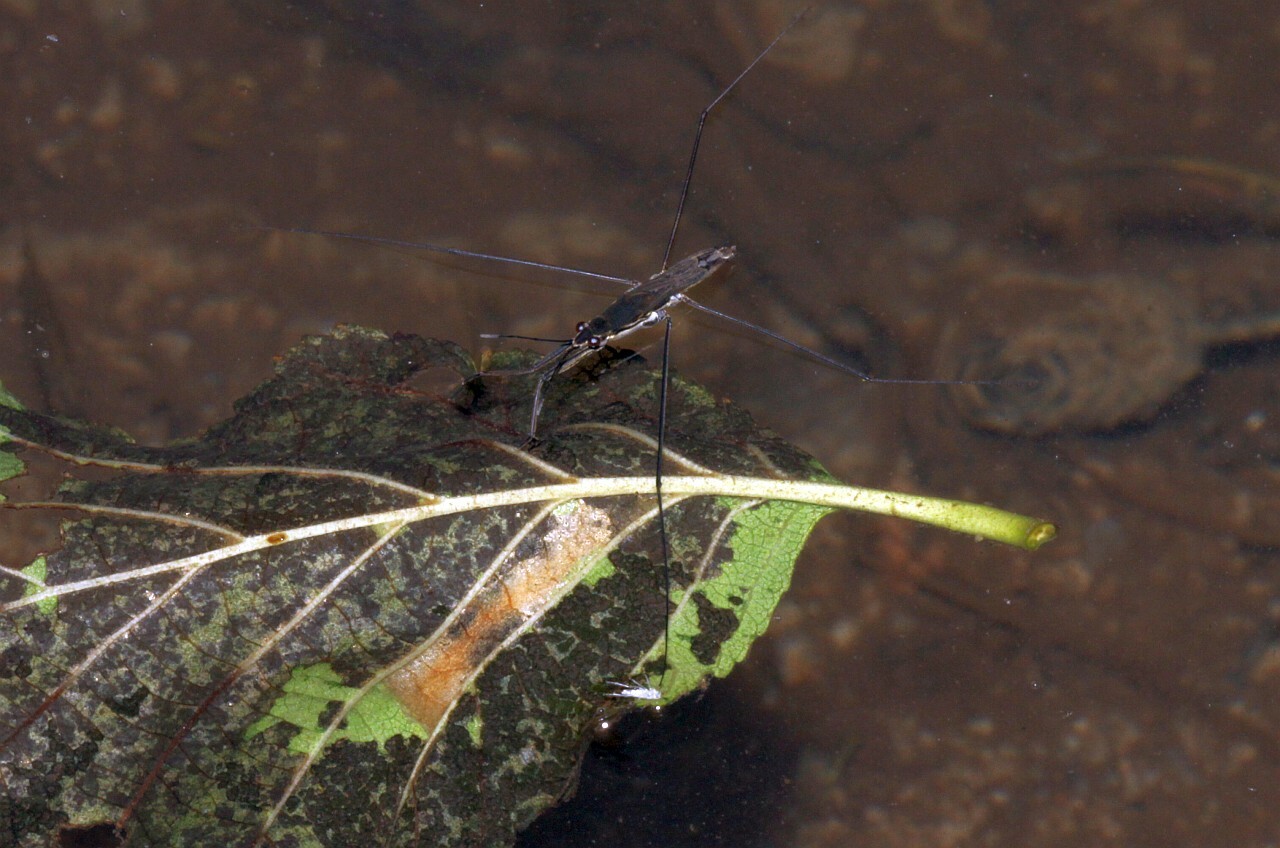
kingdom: Animalia
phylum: Arthropoda
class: Insecta
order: Hemiptera
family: Gerridae
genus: Aquarius
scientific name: Aquarius paludum
